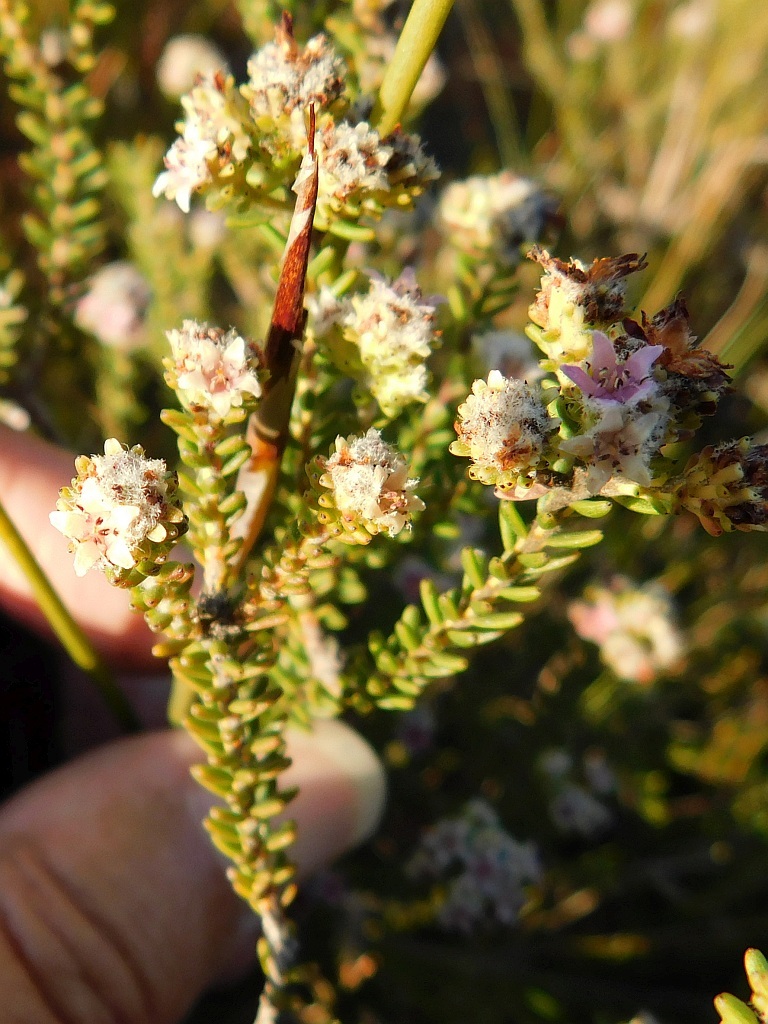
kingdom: Plantae
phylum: Tracheophyta
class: Magnoliopsida
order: Bruniales
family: Bruniaceae
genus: Staavia
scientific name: Staavia capitella
